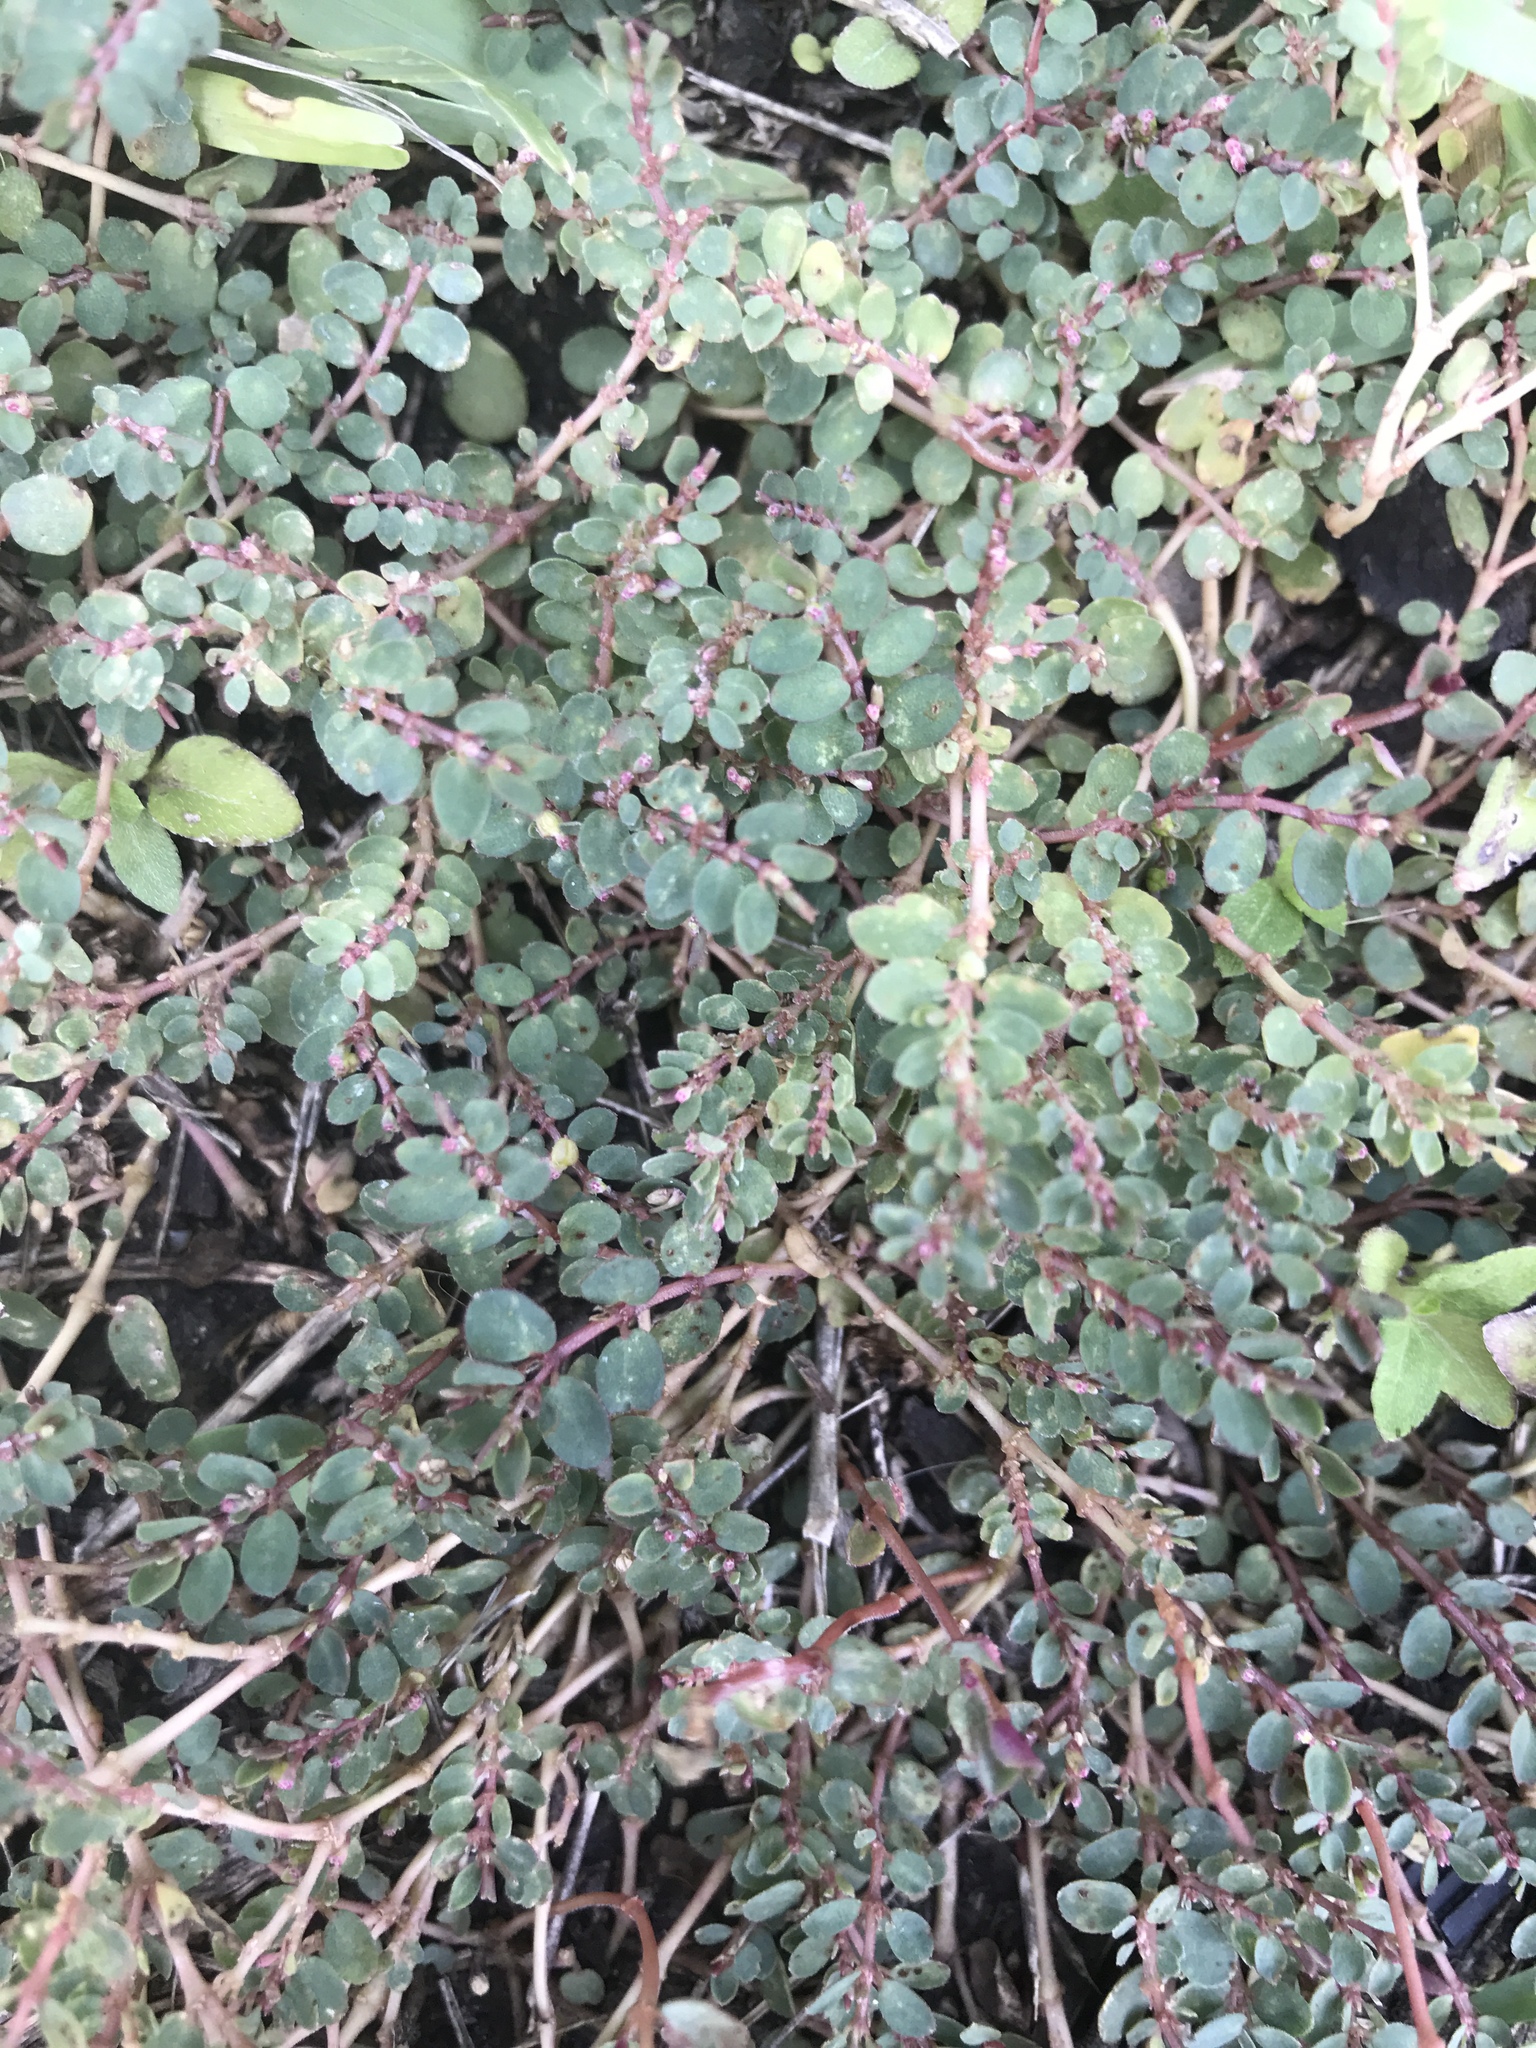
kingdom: Plantae
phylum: Tracheophyta
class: Magnoliopsida
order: Malpighiales
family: Euphorbiaceae
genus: Euphorbia
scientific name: Euphorbia prostrata
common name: Prostrate sandmat
